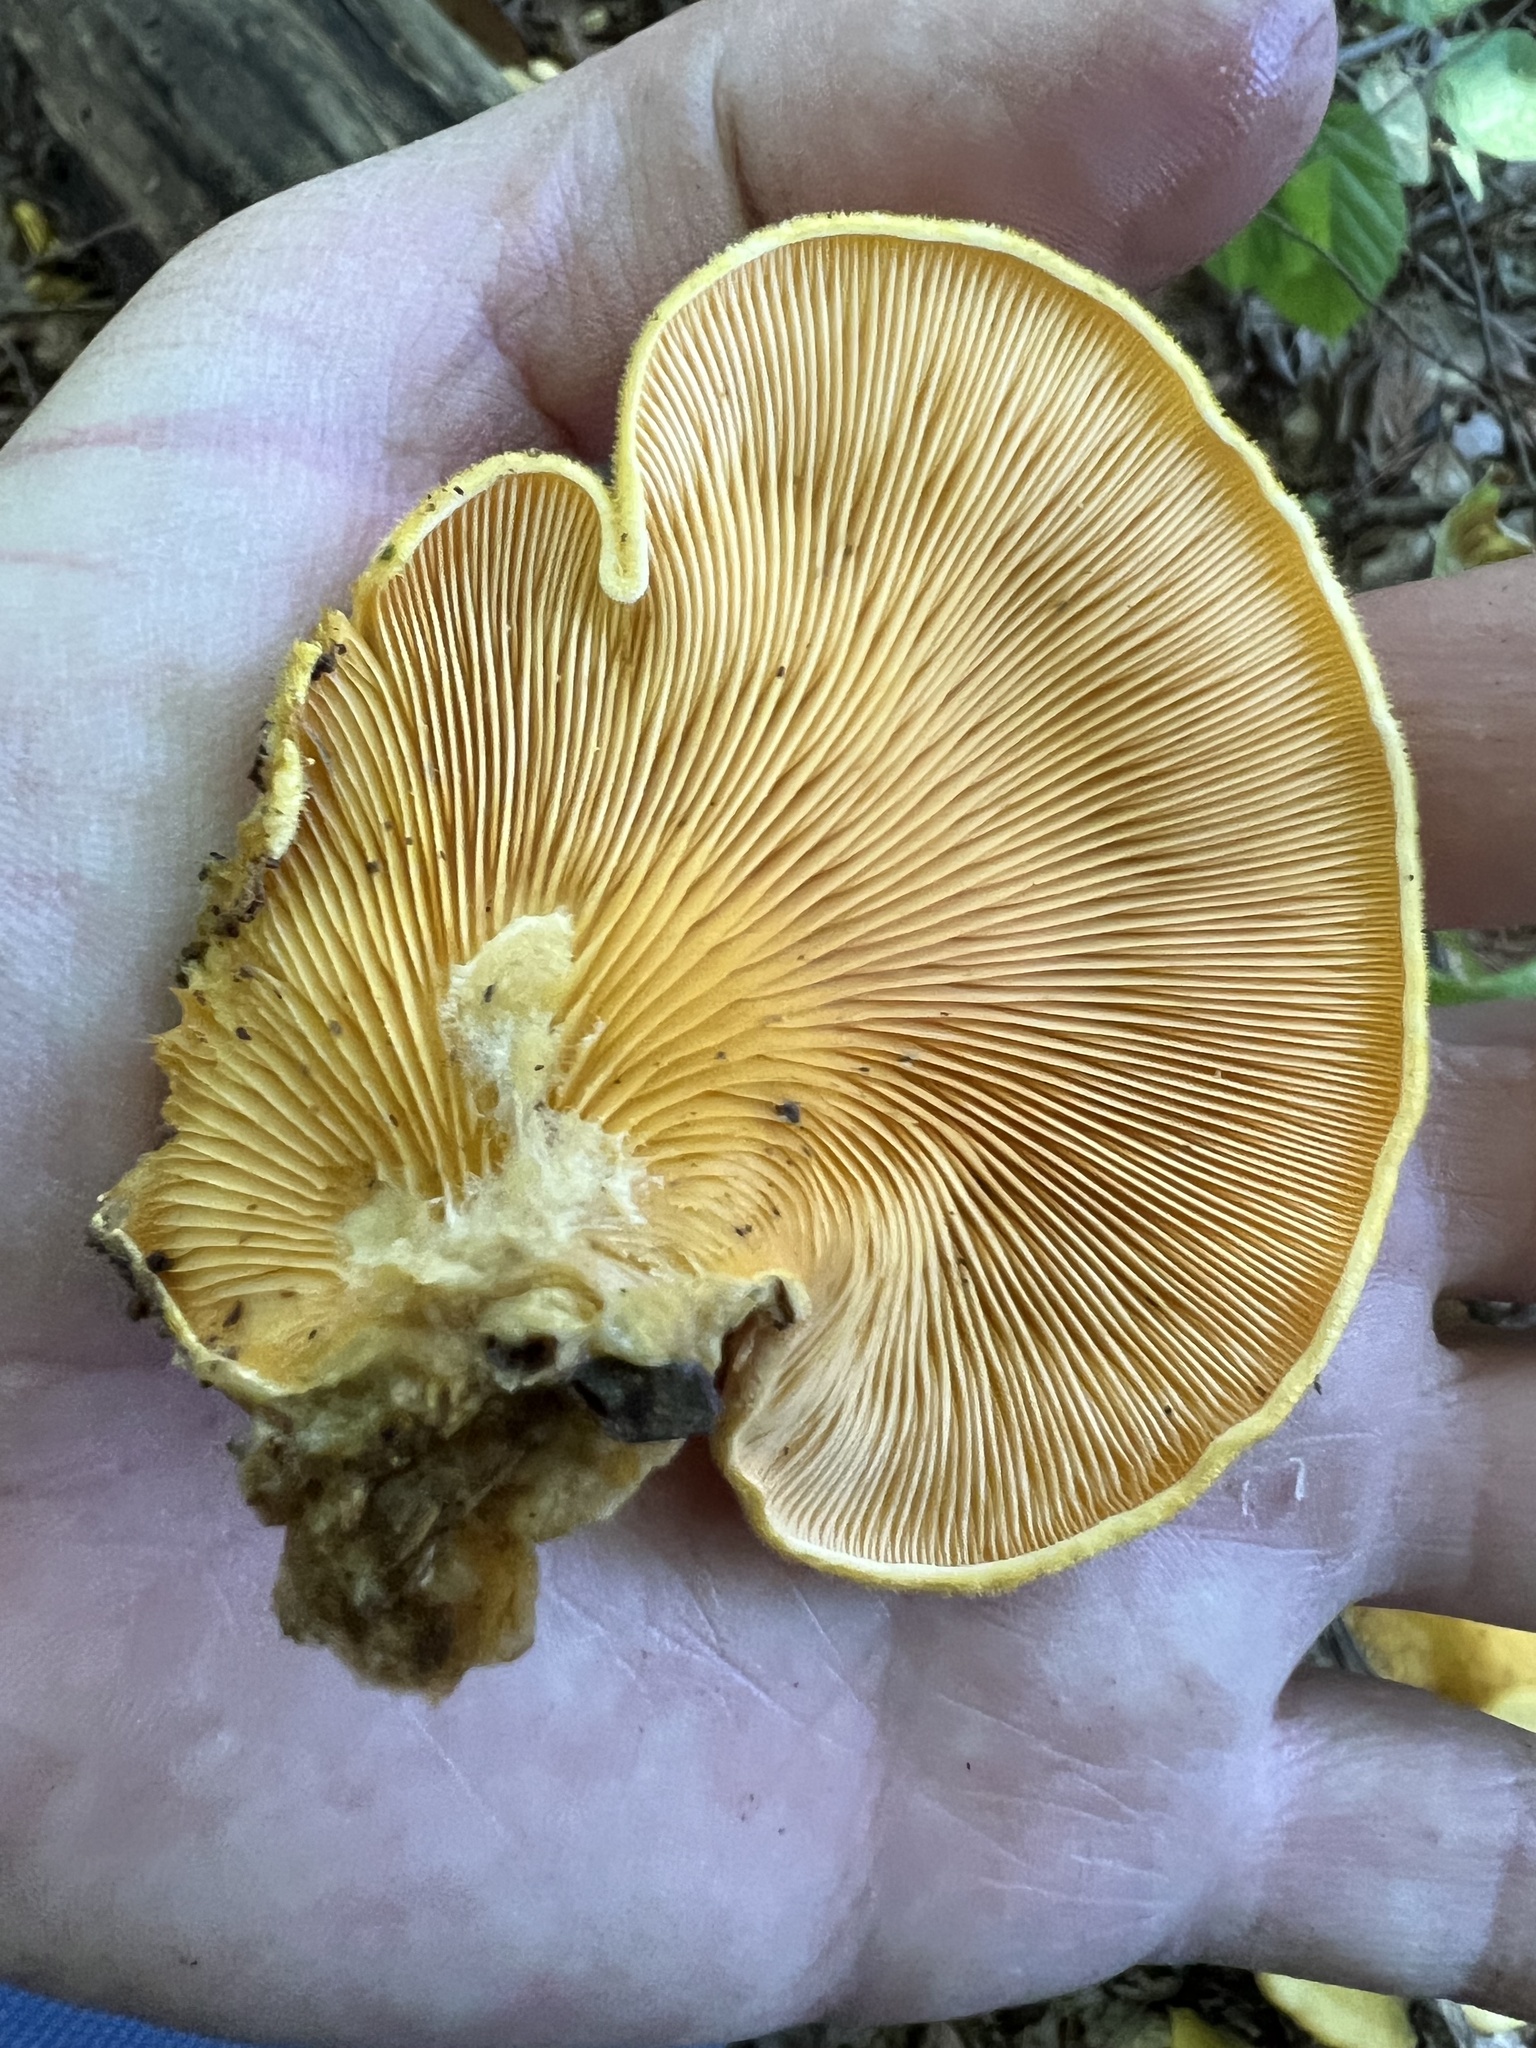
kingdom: Fungi
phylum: Basidiomycota
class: Agaricomycetes
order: Agaricales
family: Phyllotopsidaceae
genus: Phyllotopsis
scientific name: Phyllotopsis nidulans
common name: Orange mock oyster
